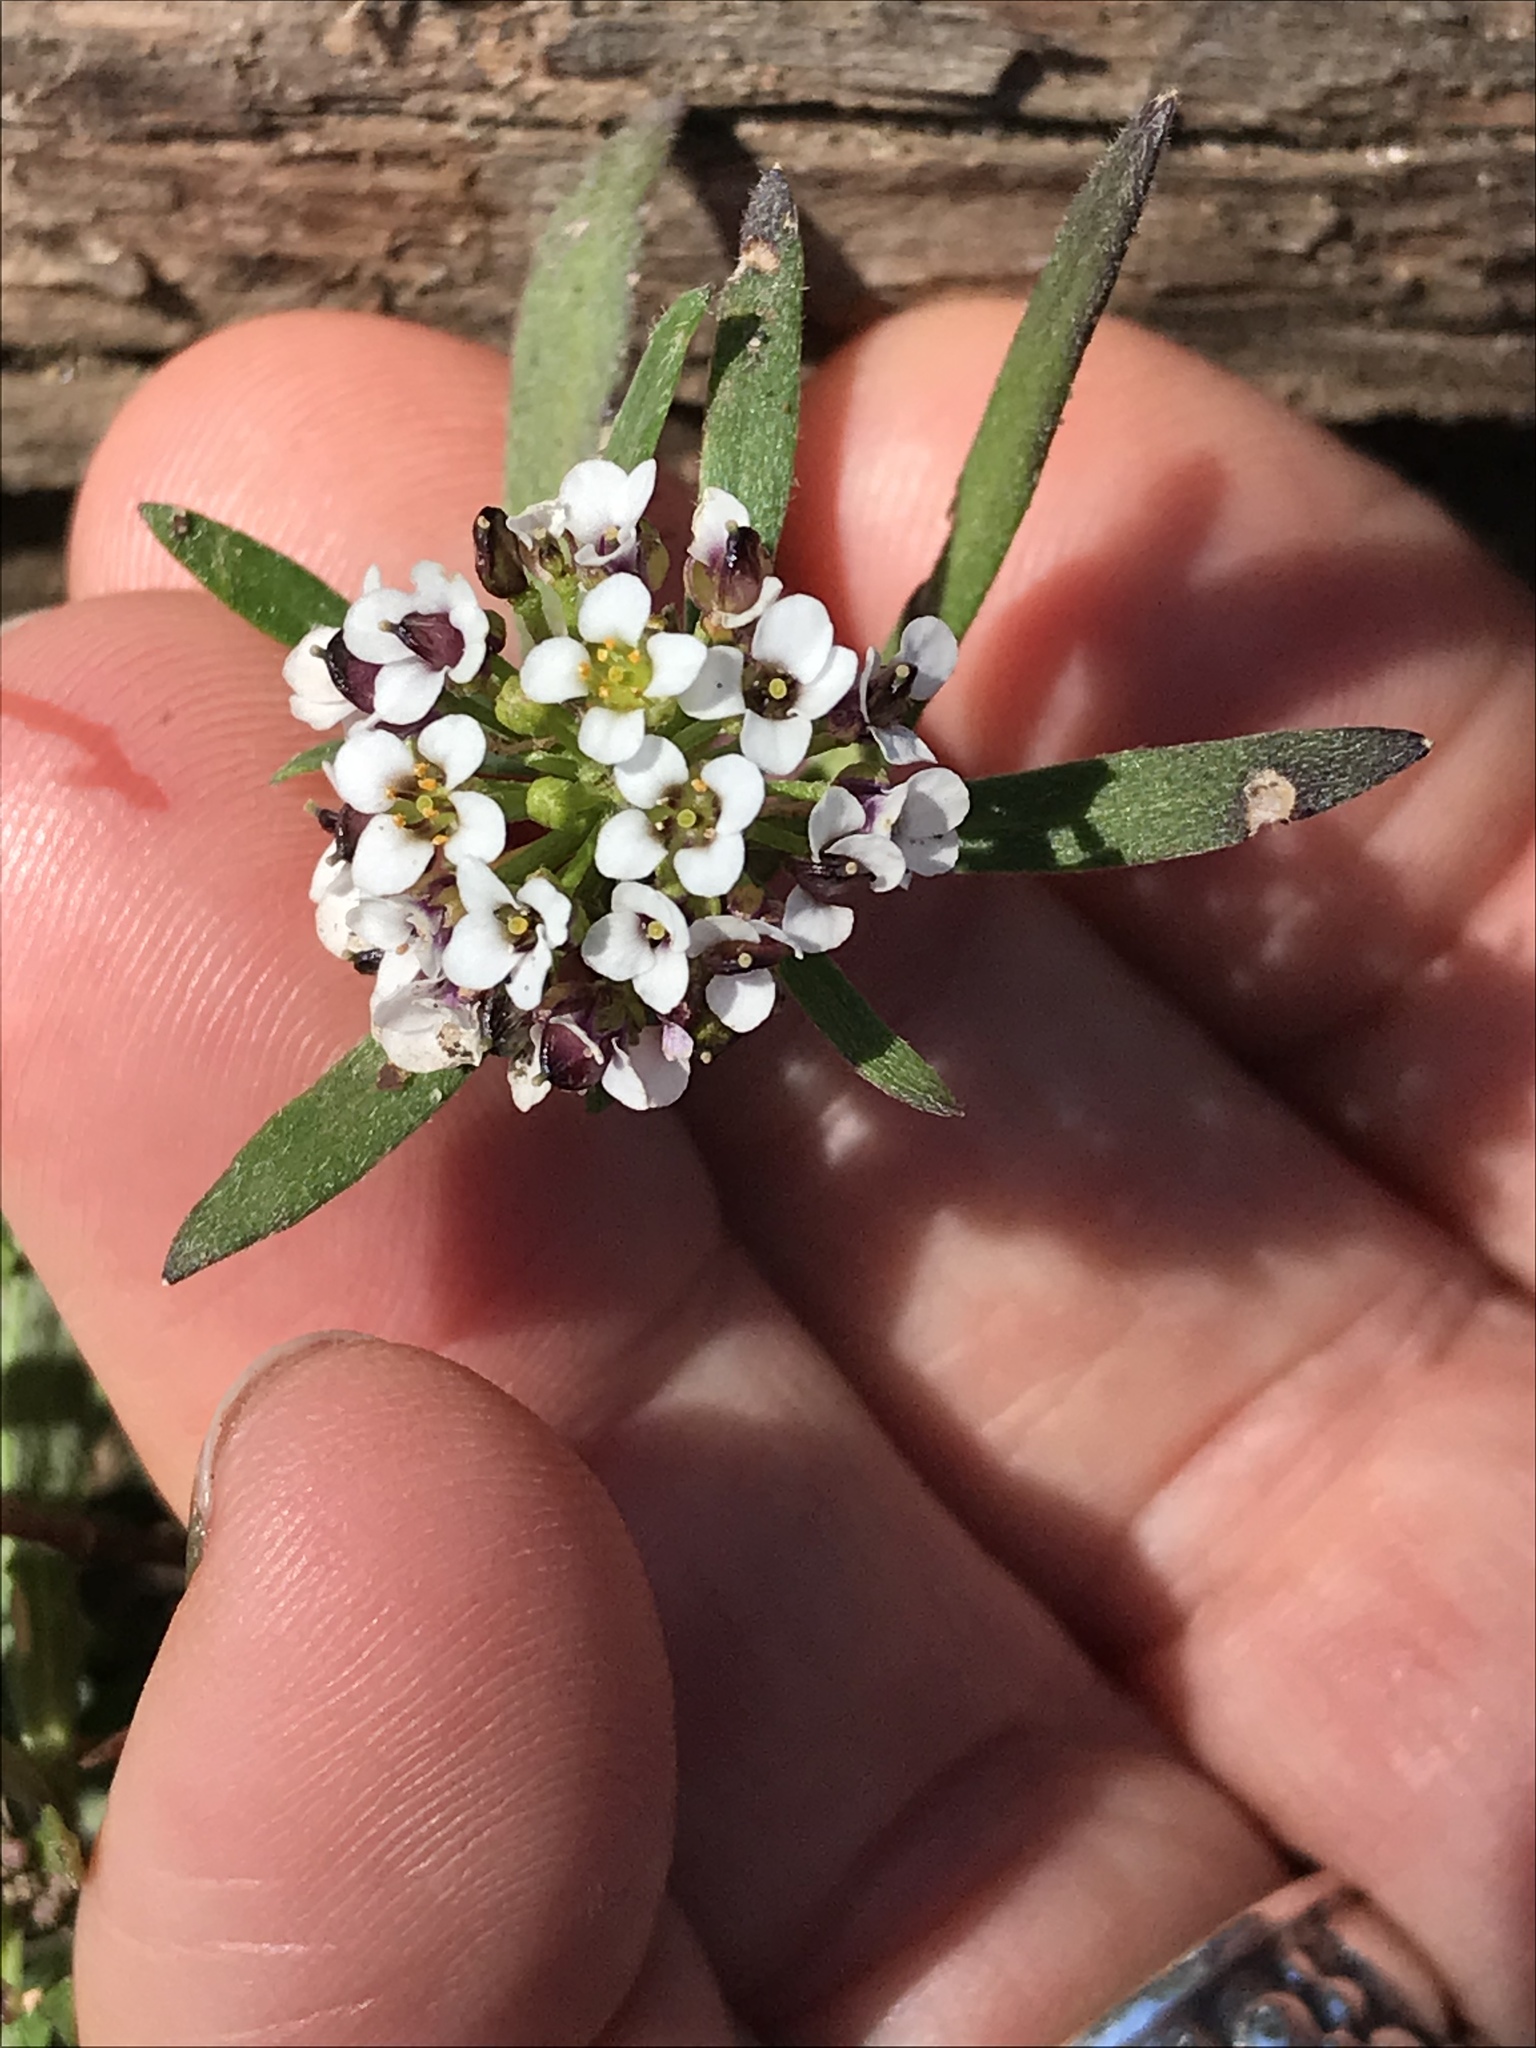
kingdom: Plantae
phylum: Tracheophyta
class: Magnoliopsida
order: Brassicales
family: Brassicaceae
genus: Lobularia
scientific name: Lobularia maritima
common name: Sweet alison
